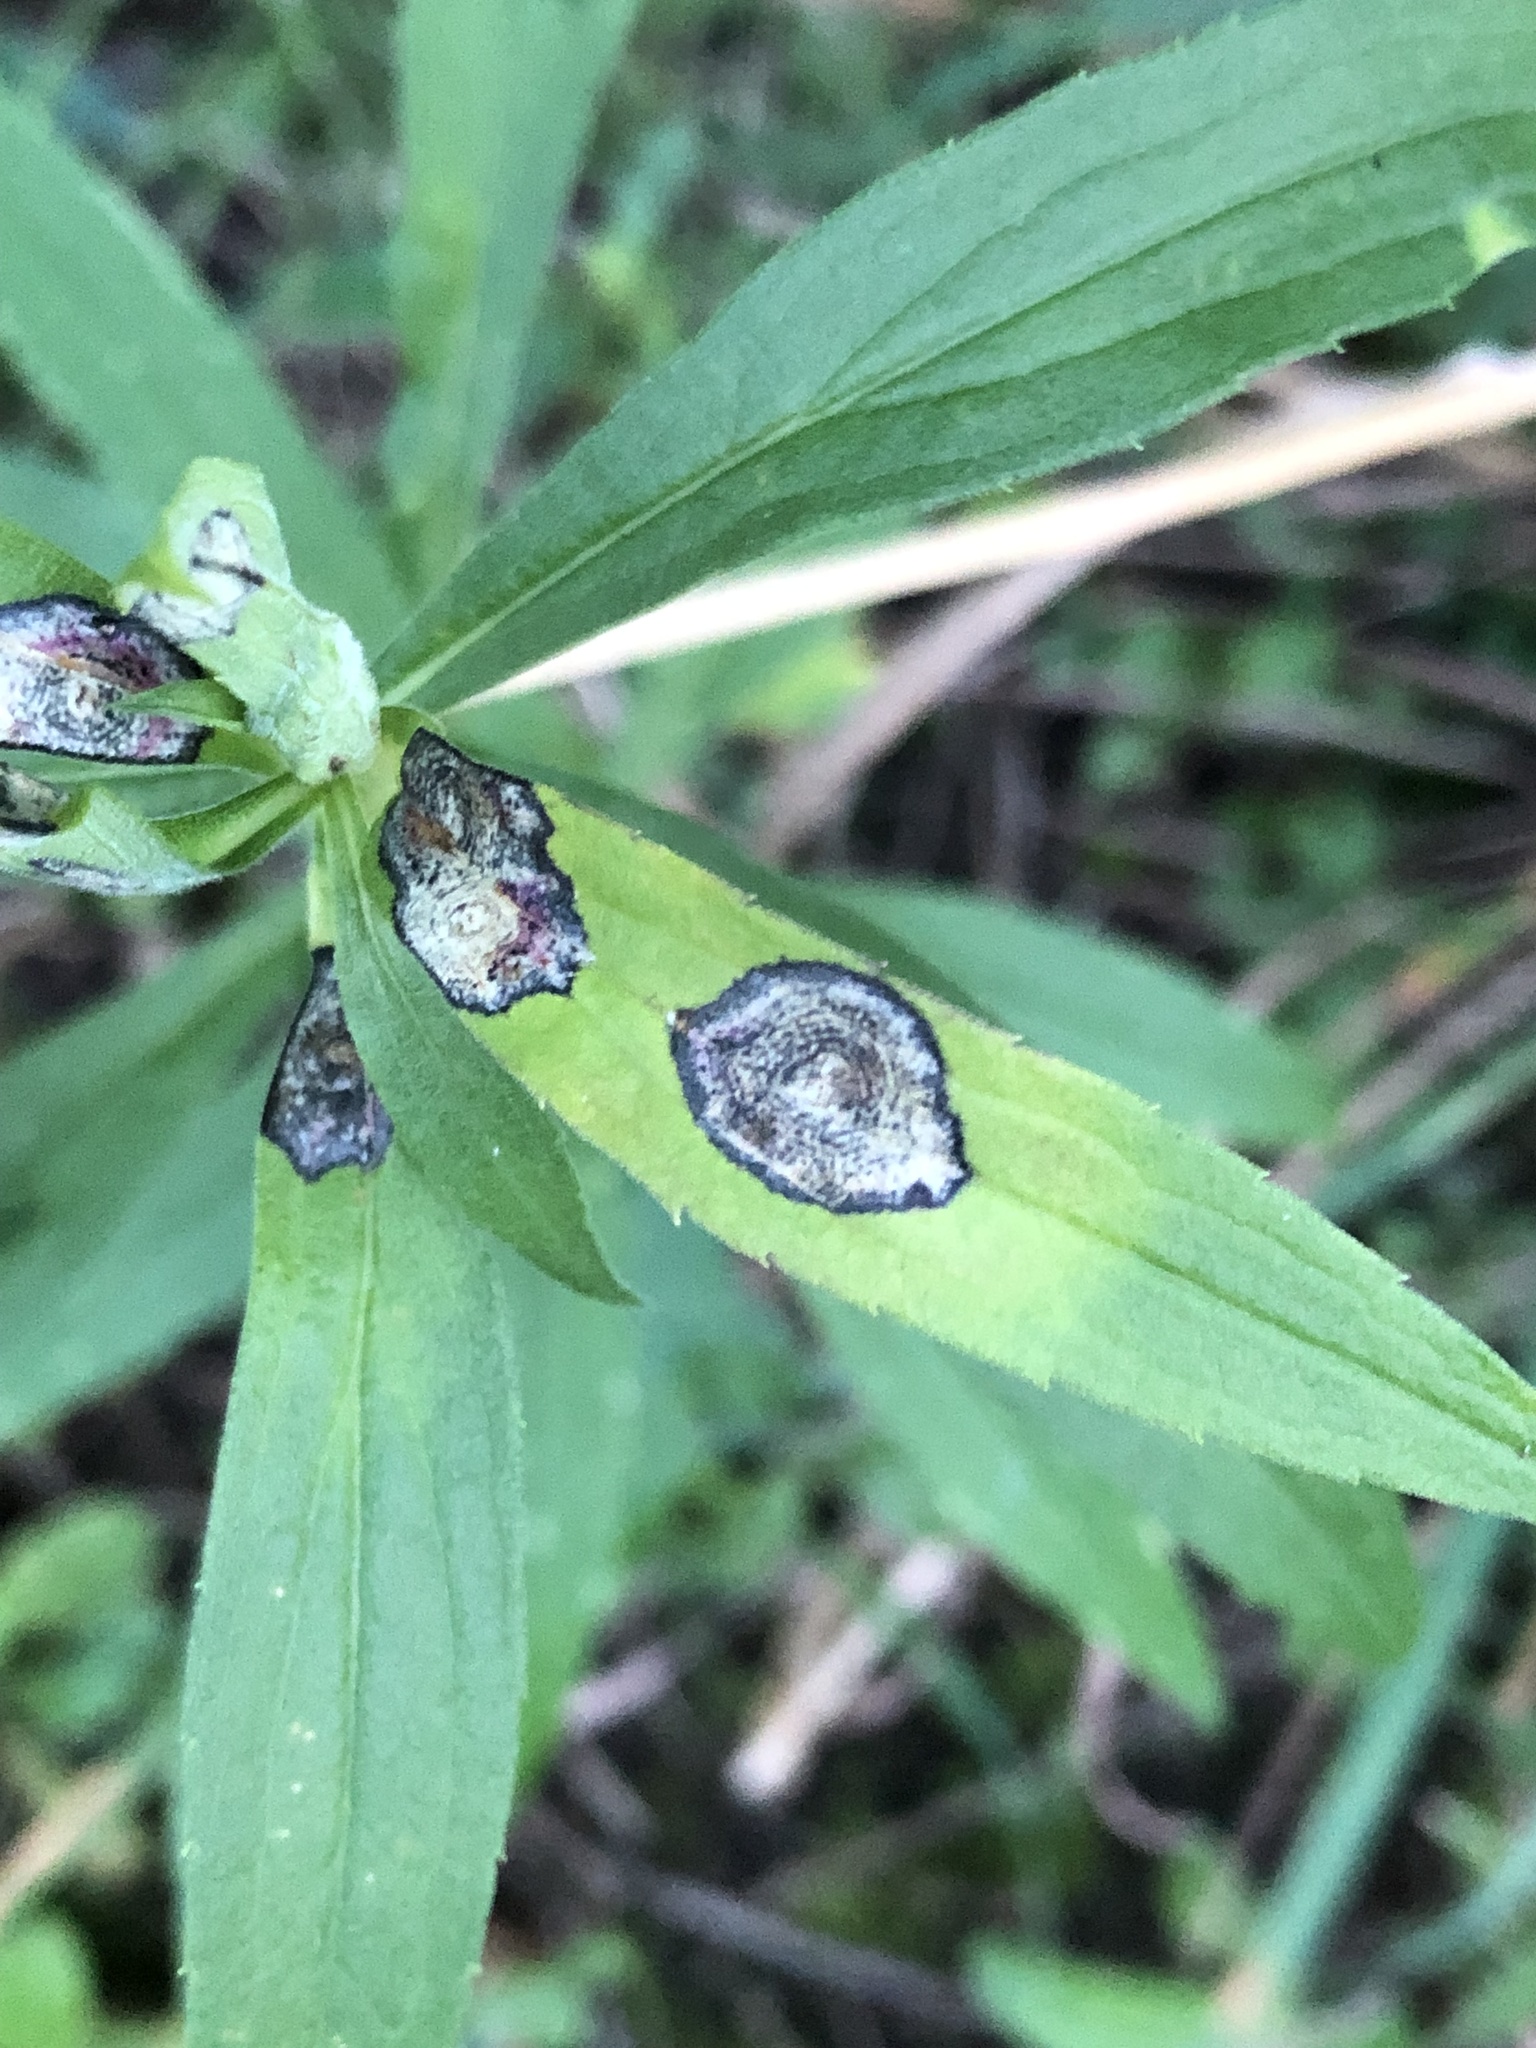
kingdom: Animalia
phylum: Arthropoda
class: Insecta
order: Diptera
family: Cecidomyiidae
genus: Asteromyia
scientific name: Asteromyia carbonifera
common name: Carbonifera goldenrod gall midge
